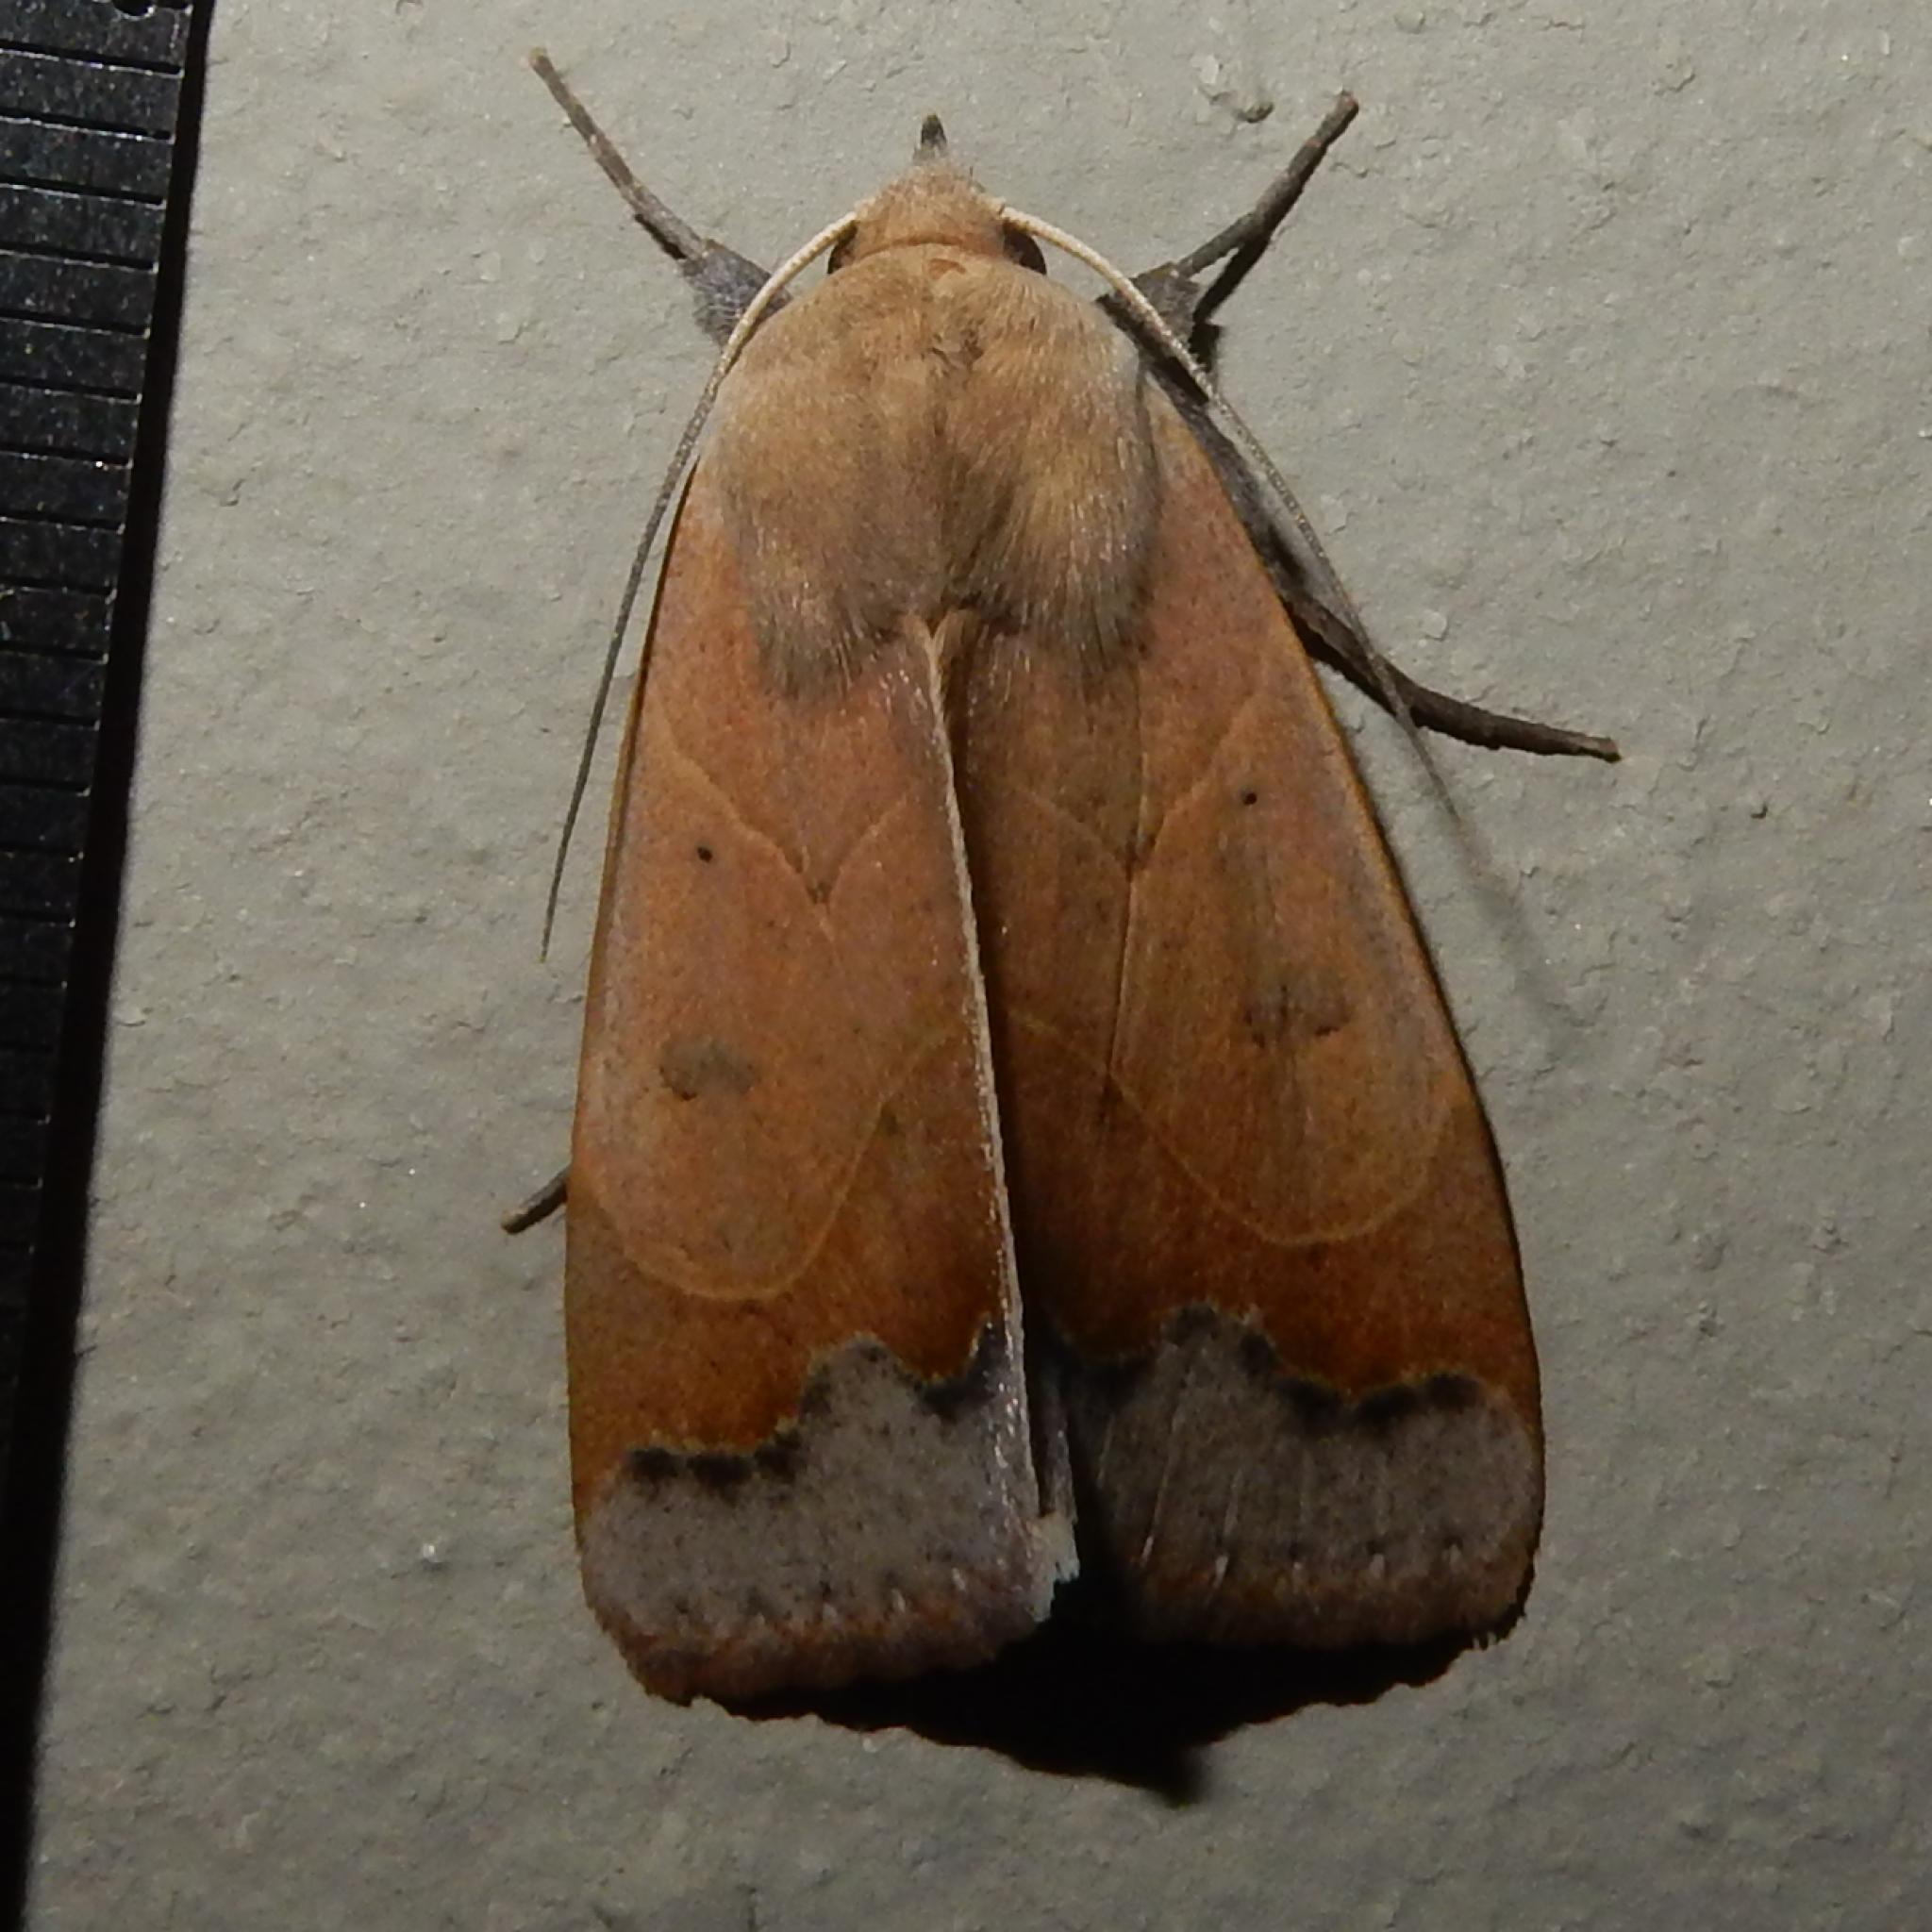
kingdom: Animalia
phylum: Arthropoda
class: Insecta
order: Lepidoptera
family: Erebidae
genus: Ophiusa
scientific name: Ophiusa selenaris
